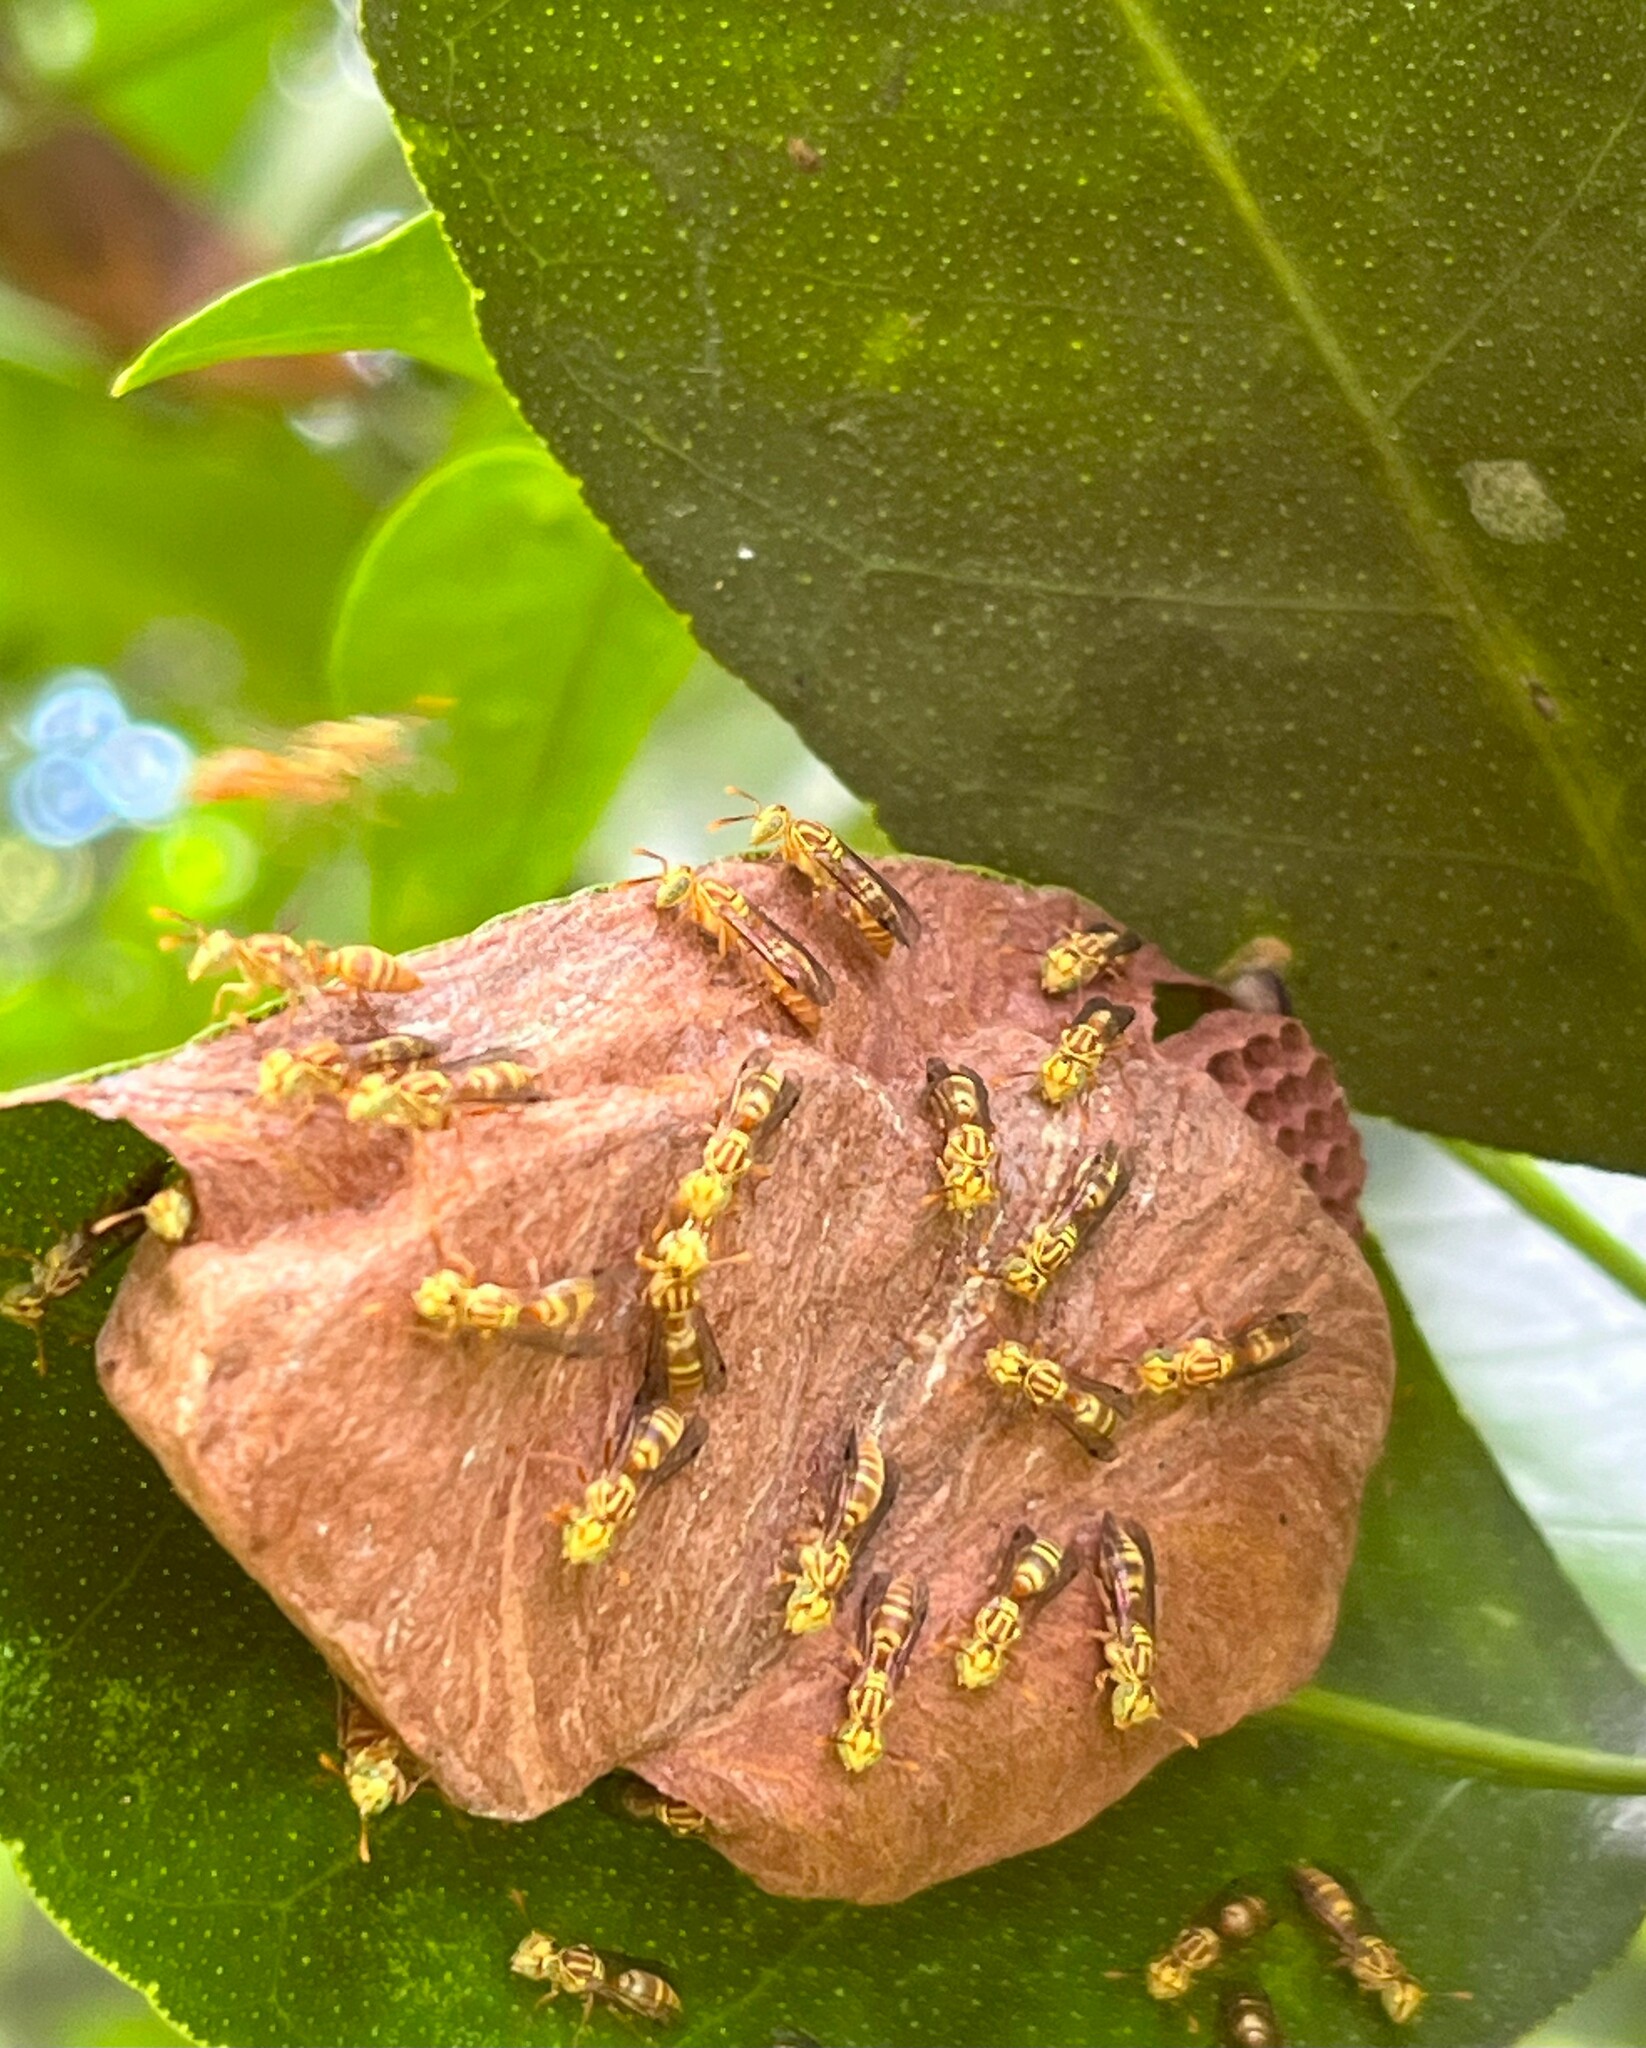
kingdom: Animalia
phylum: Arthropoda
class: Insecta
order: Hymenoptera
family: Vespidae
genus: Protopolybia
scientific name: Protopolybia potiguara
